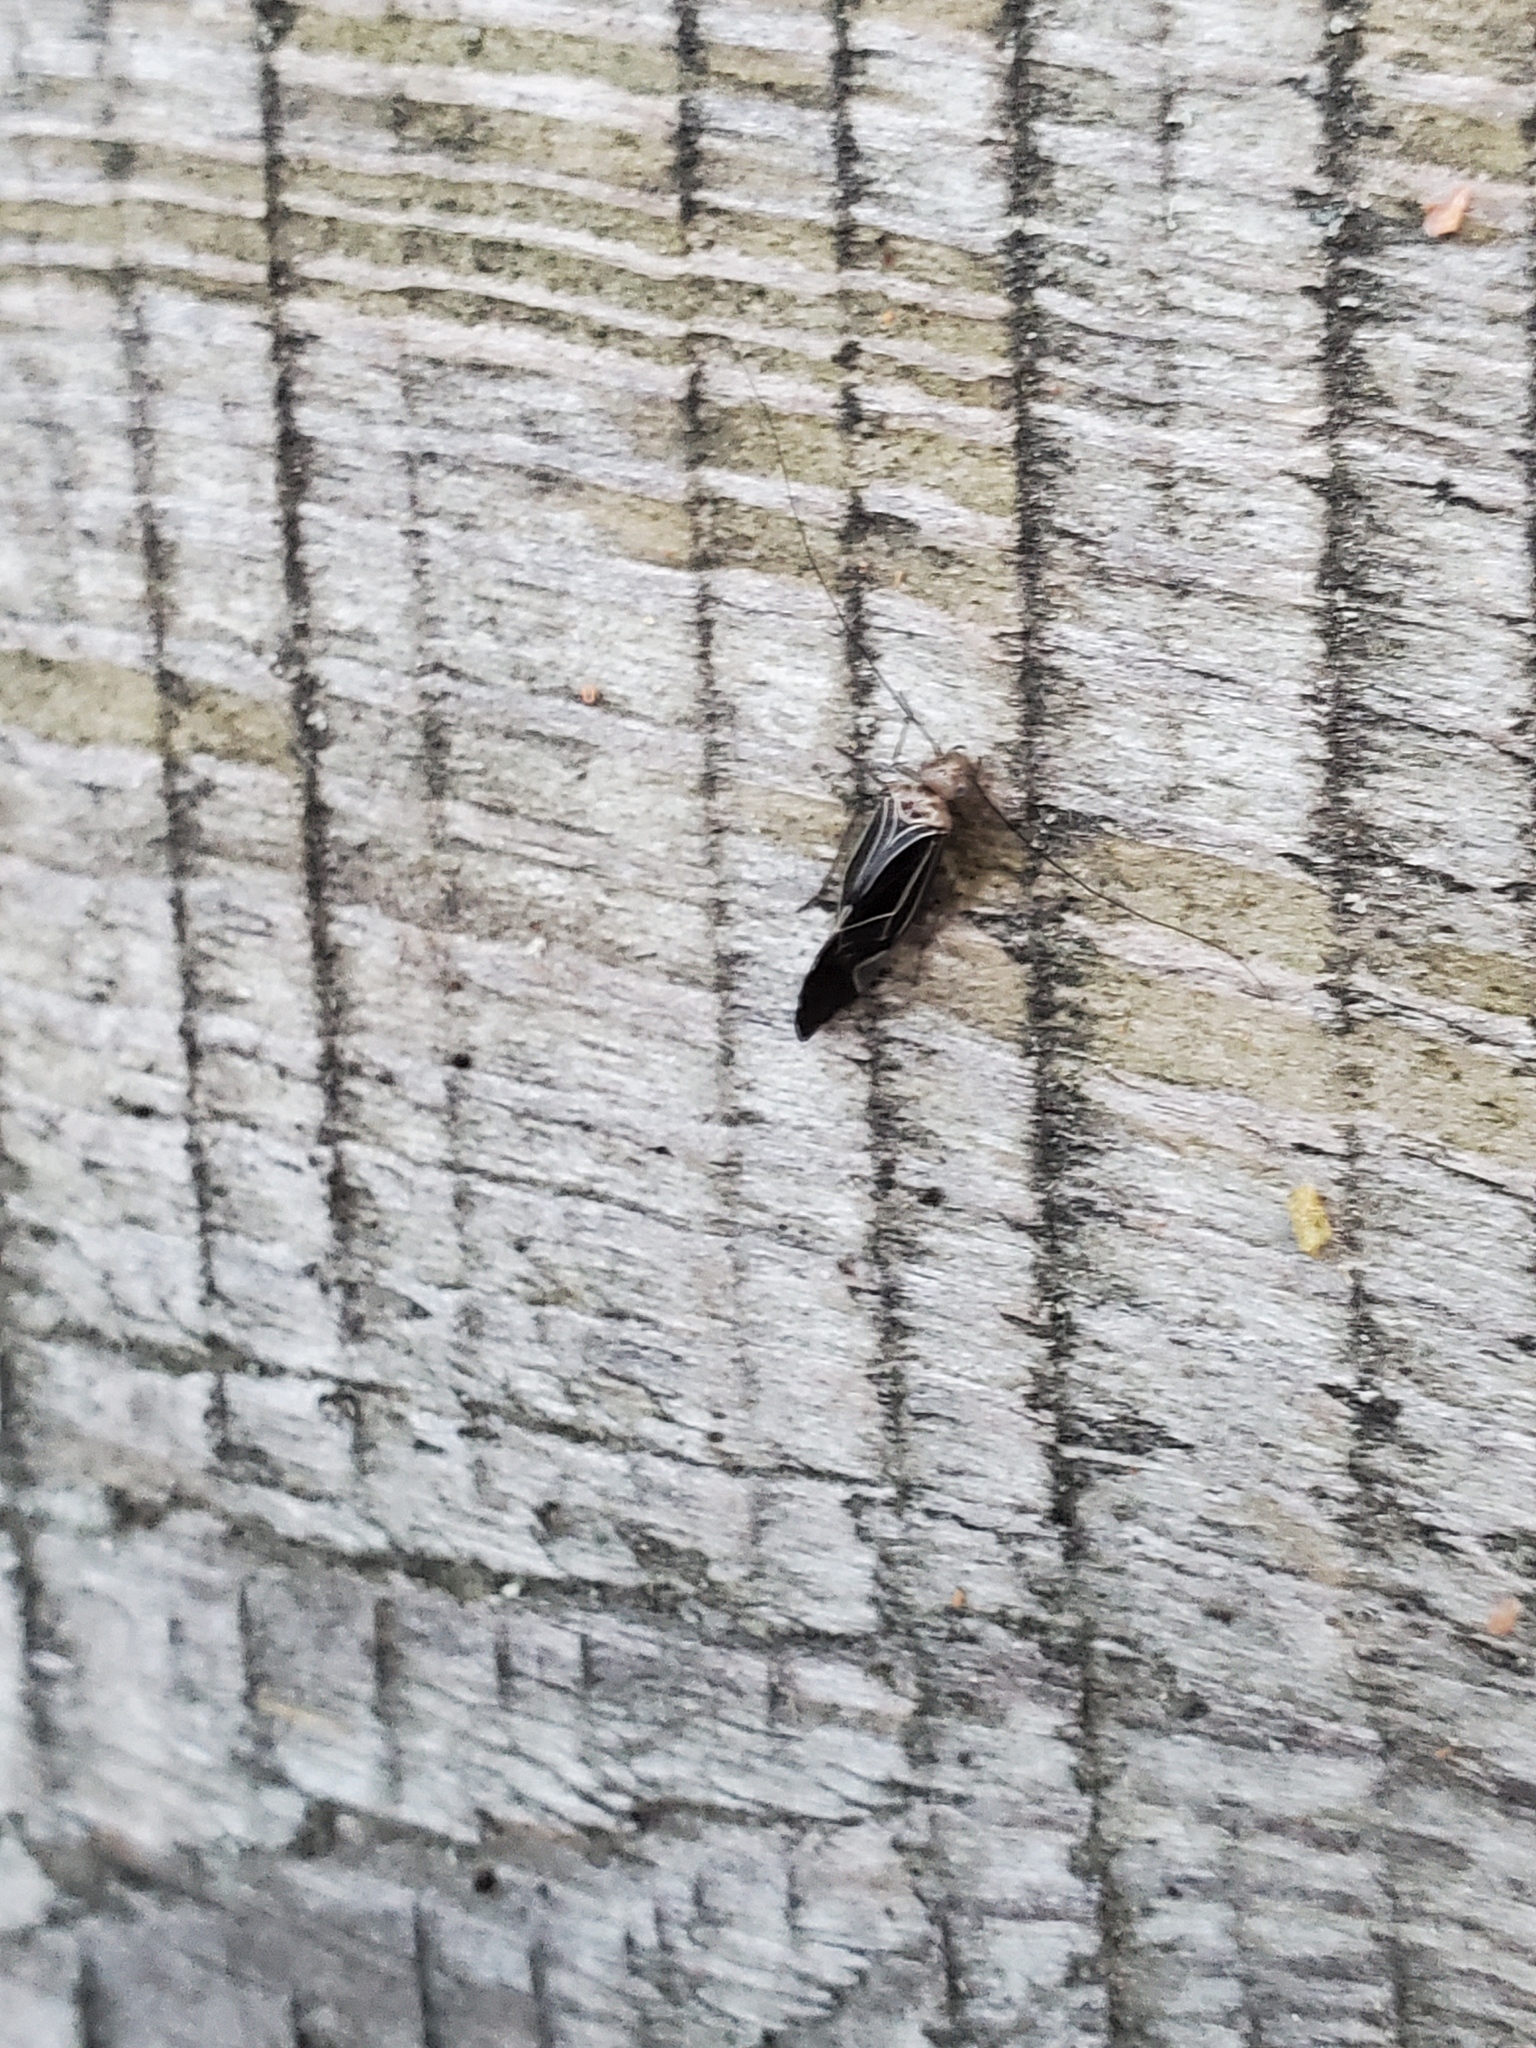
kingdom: Animalia
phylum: Arthropoda
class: Insecta
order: Psocodea
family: Psocidae
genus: Cerastipsocus
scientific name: Cerastipsocus venosus
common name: Tree cattle
